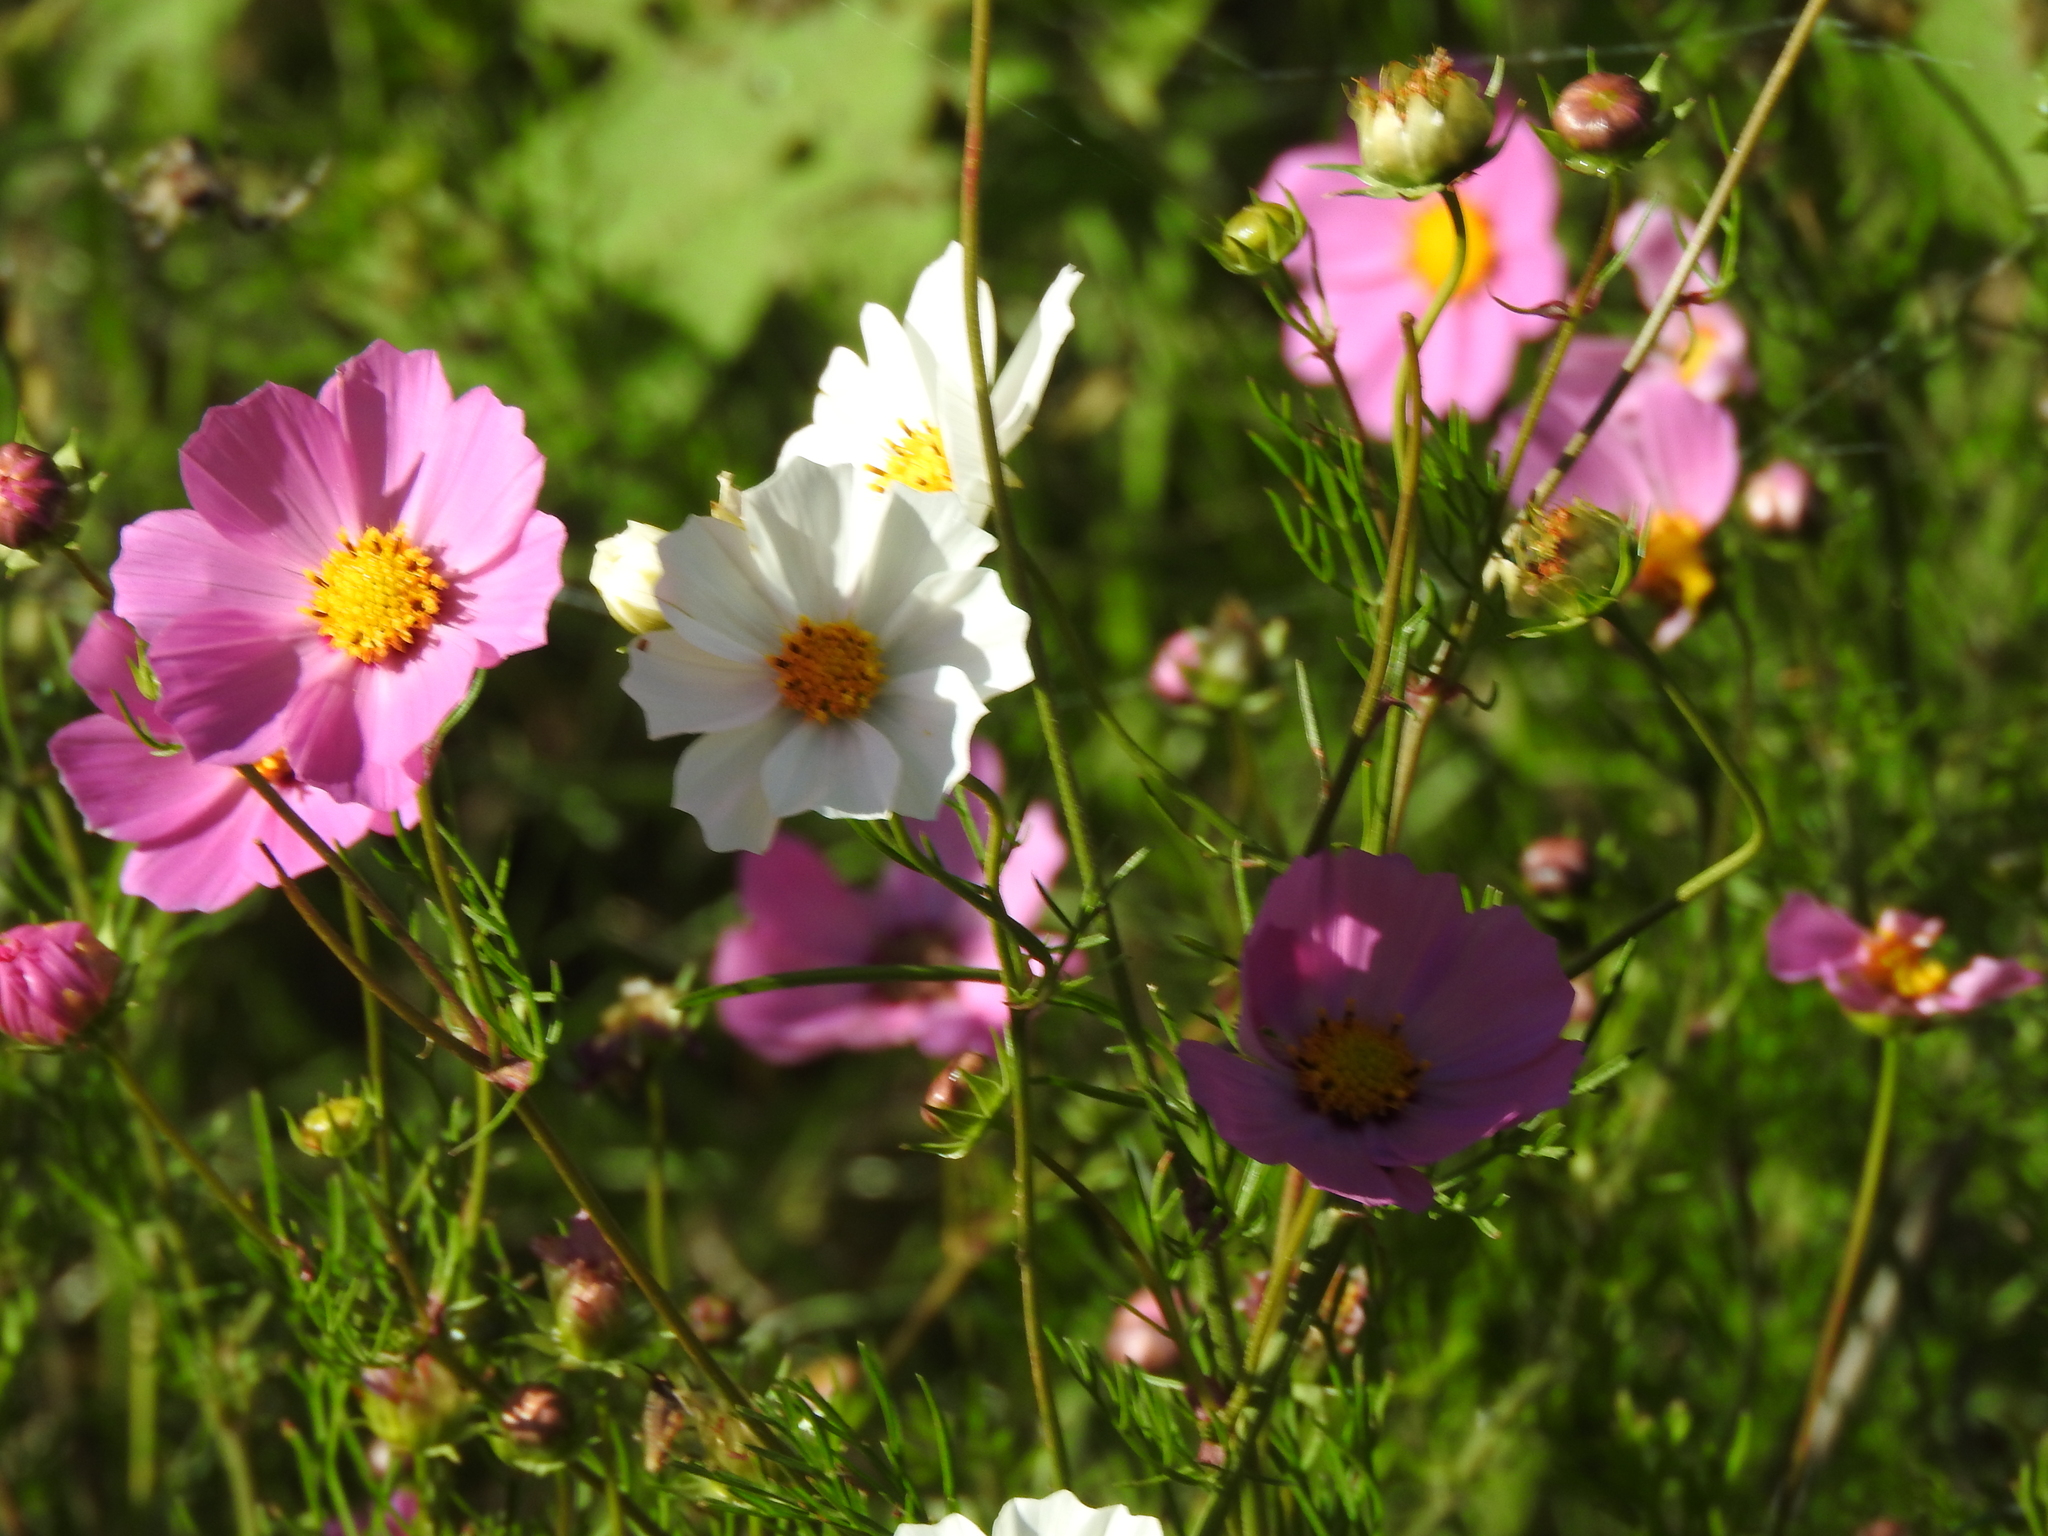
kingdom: Plantae
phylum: Tracheophyta
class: Magnoliopsida
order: Asterales
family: Asteraceae
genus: Cosmos
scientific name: Cosmos bipinnatus
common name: Garden cosmos
